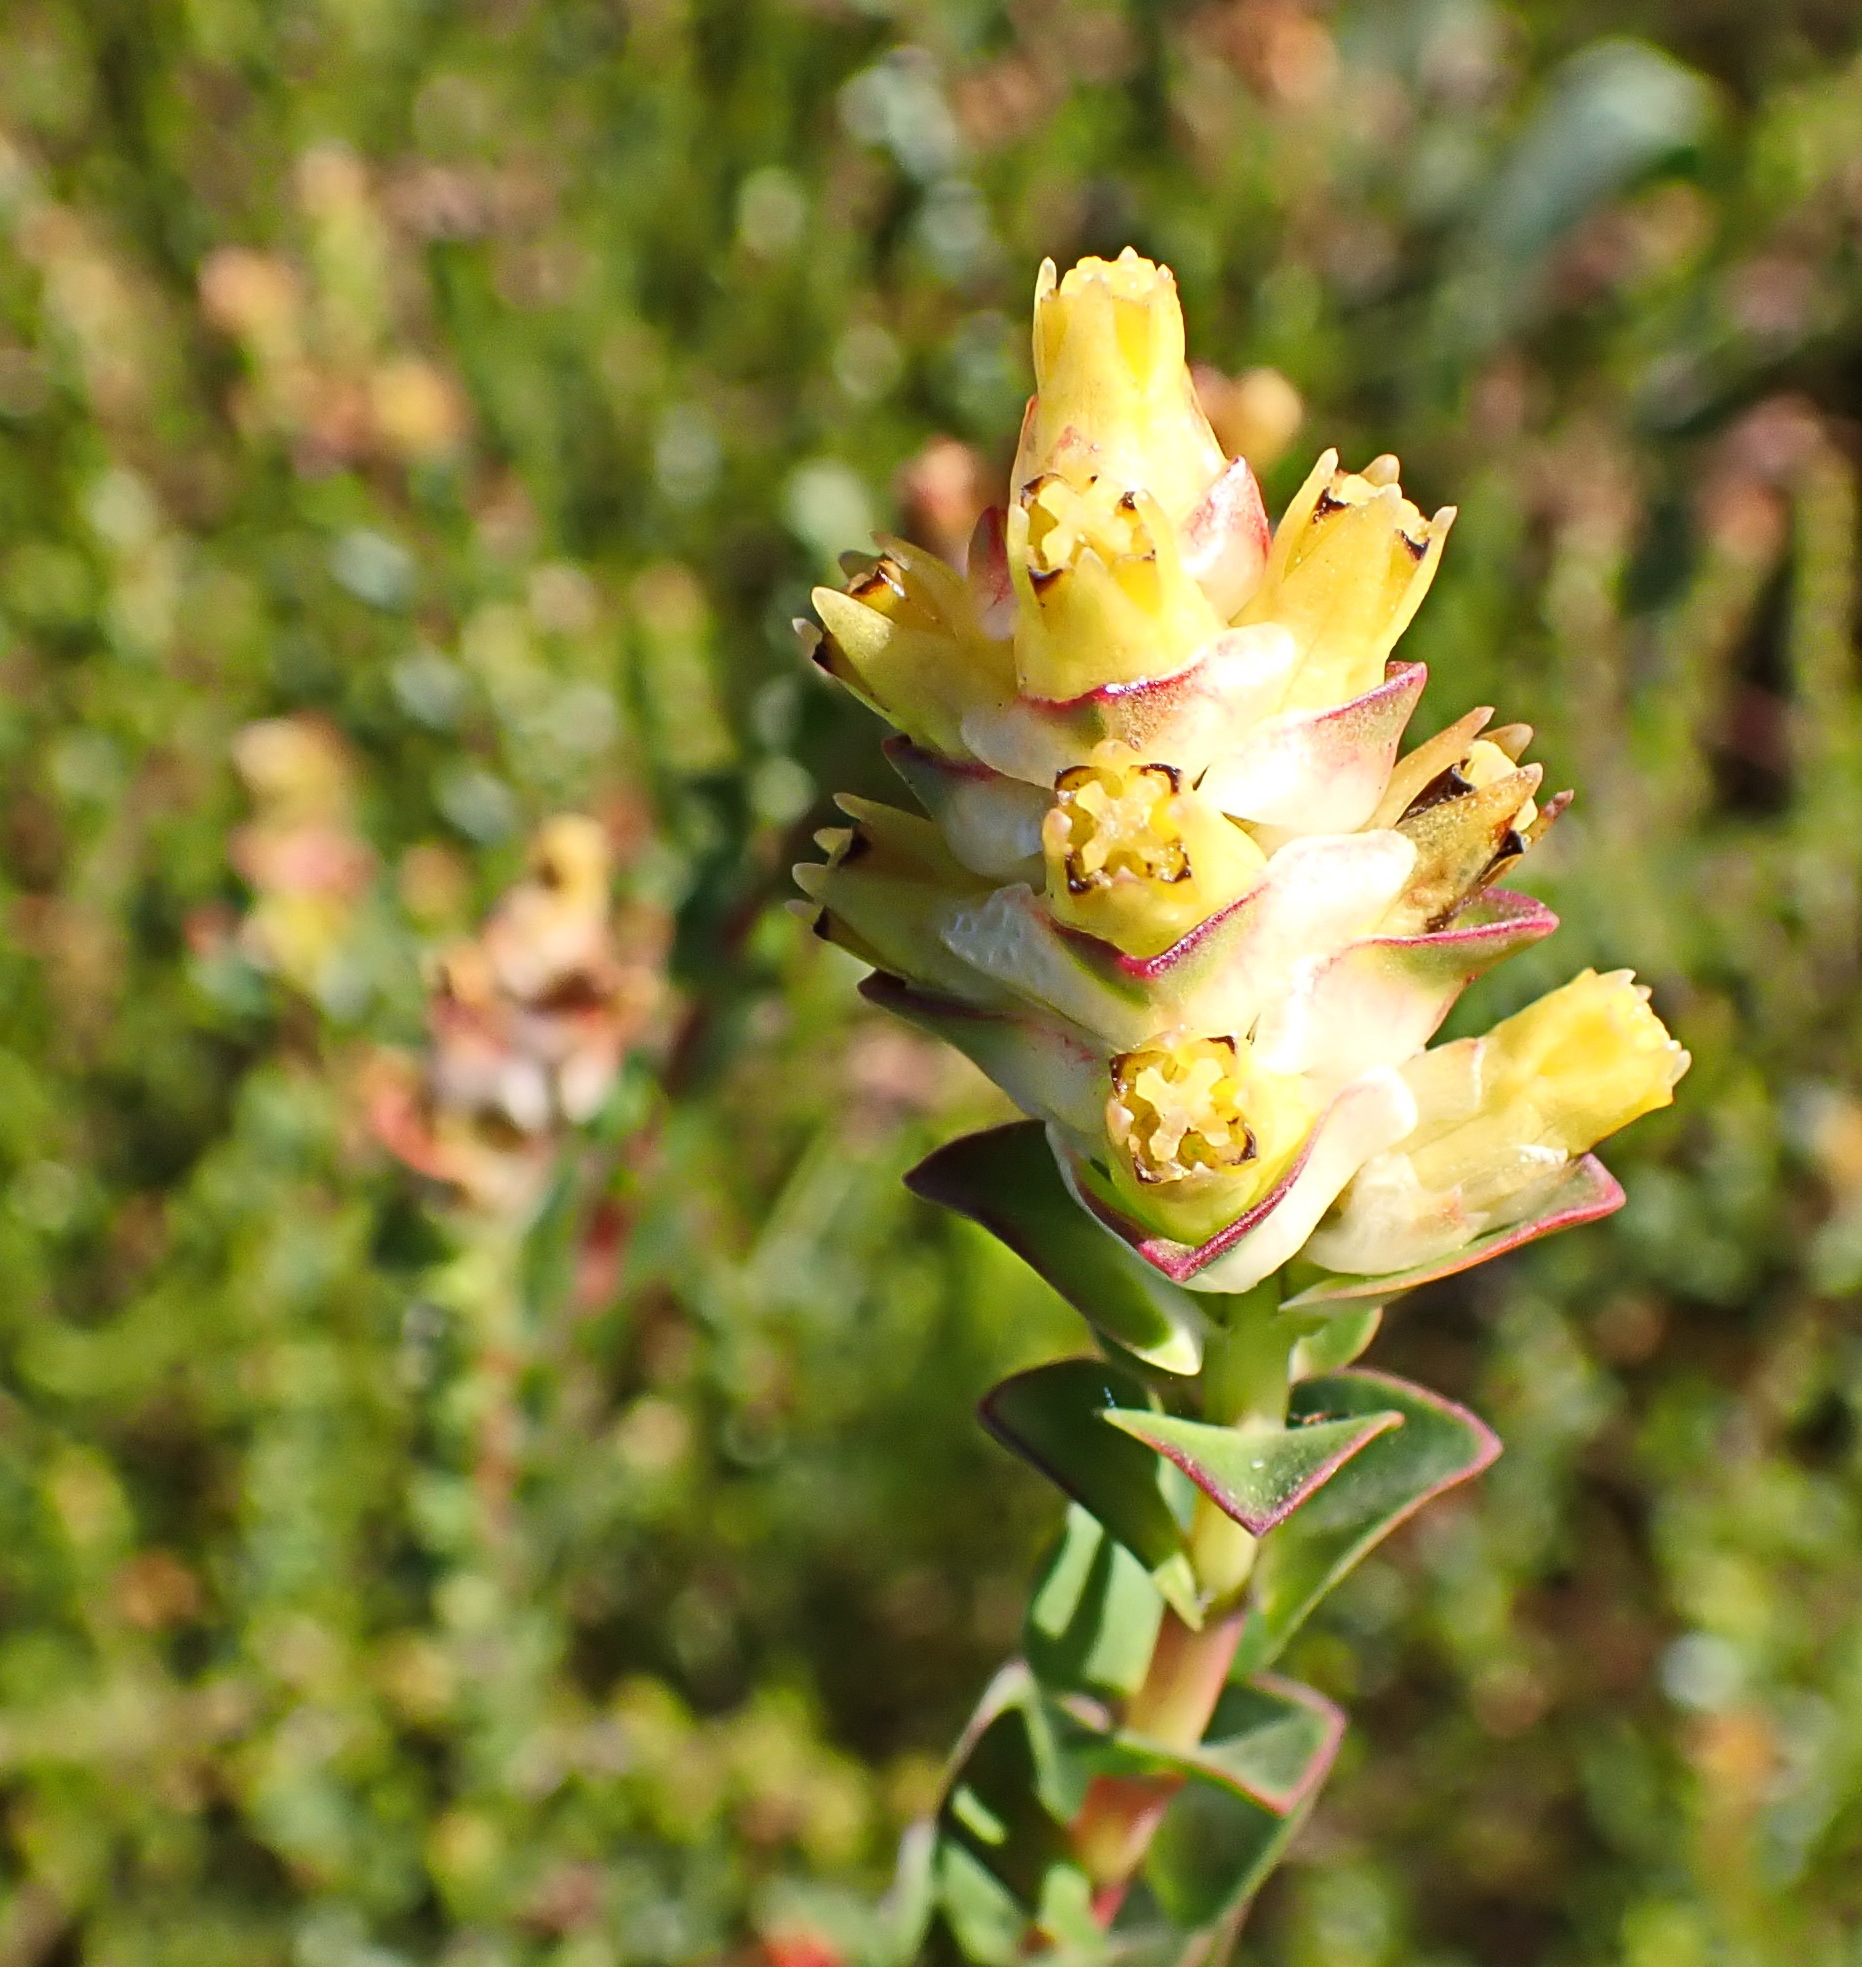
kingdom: Plantae
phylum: Tracheophyta
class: Magnoliopsida
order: Myrtales
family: Penaeaceae
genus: Penaea
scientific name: Penaea cneorum
